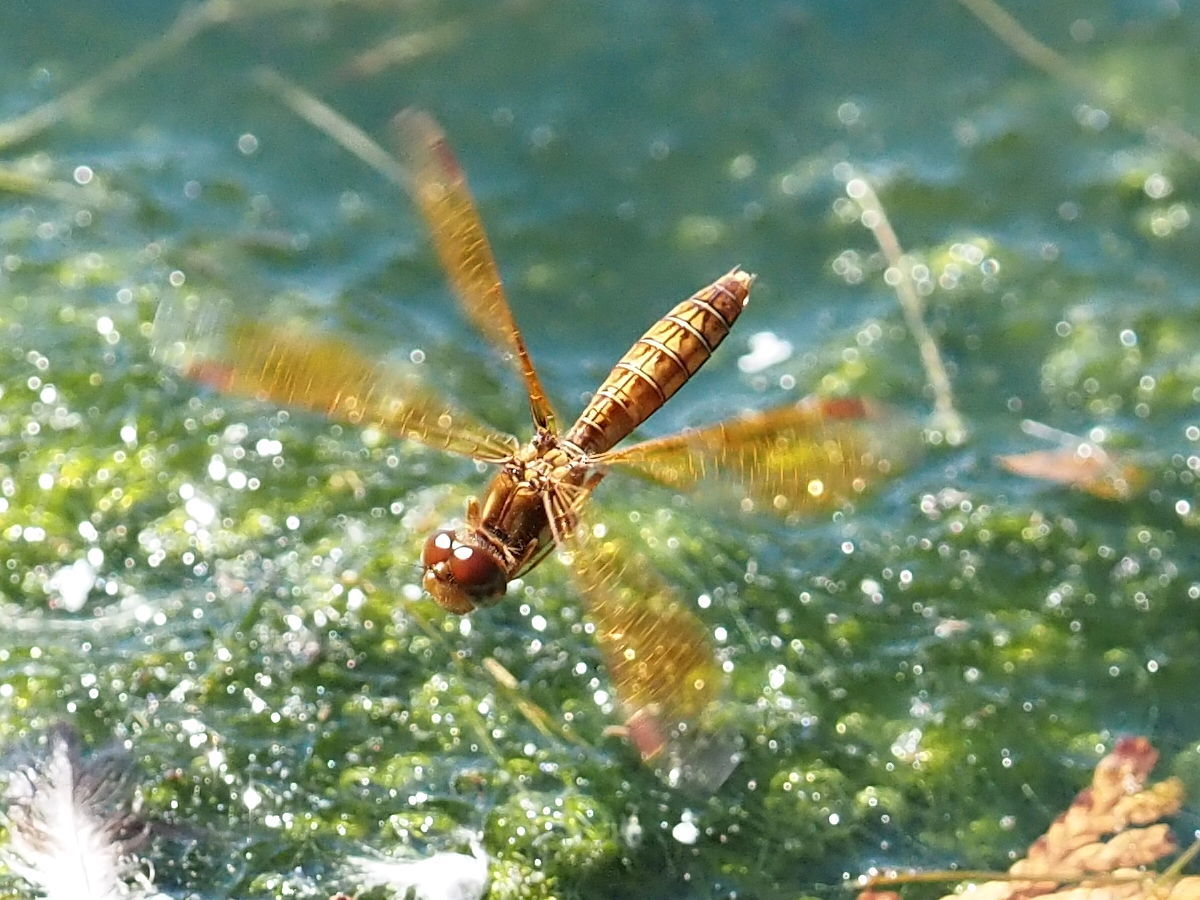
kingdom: Animalia
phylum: Arthropoda
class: Insecta
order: Odonata
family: Libellulidae
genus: Perithemis
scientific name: Perithemis tenera
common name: Eastern amberwing
